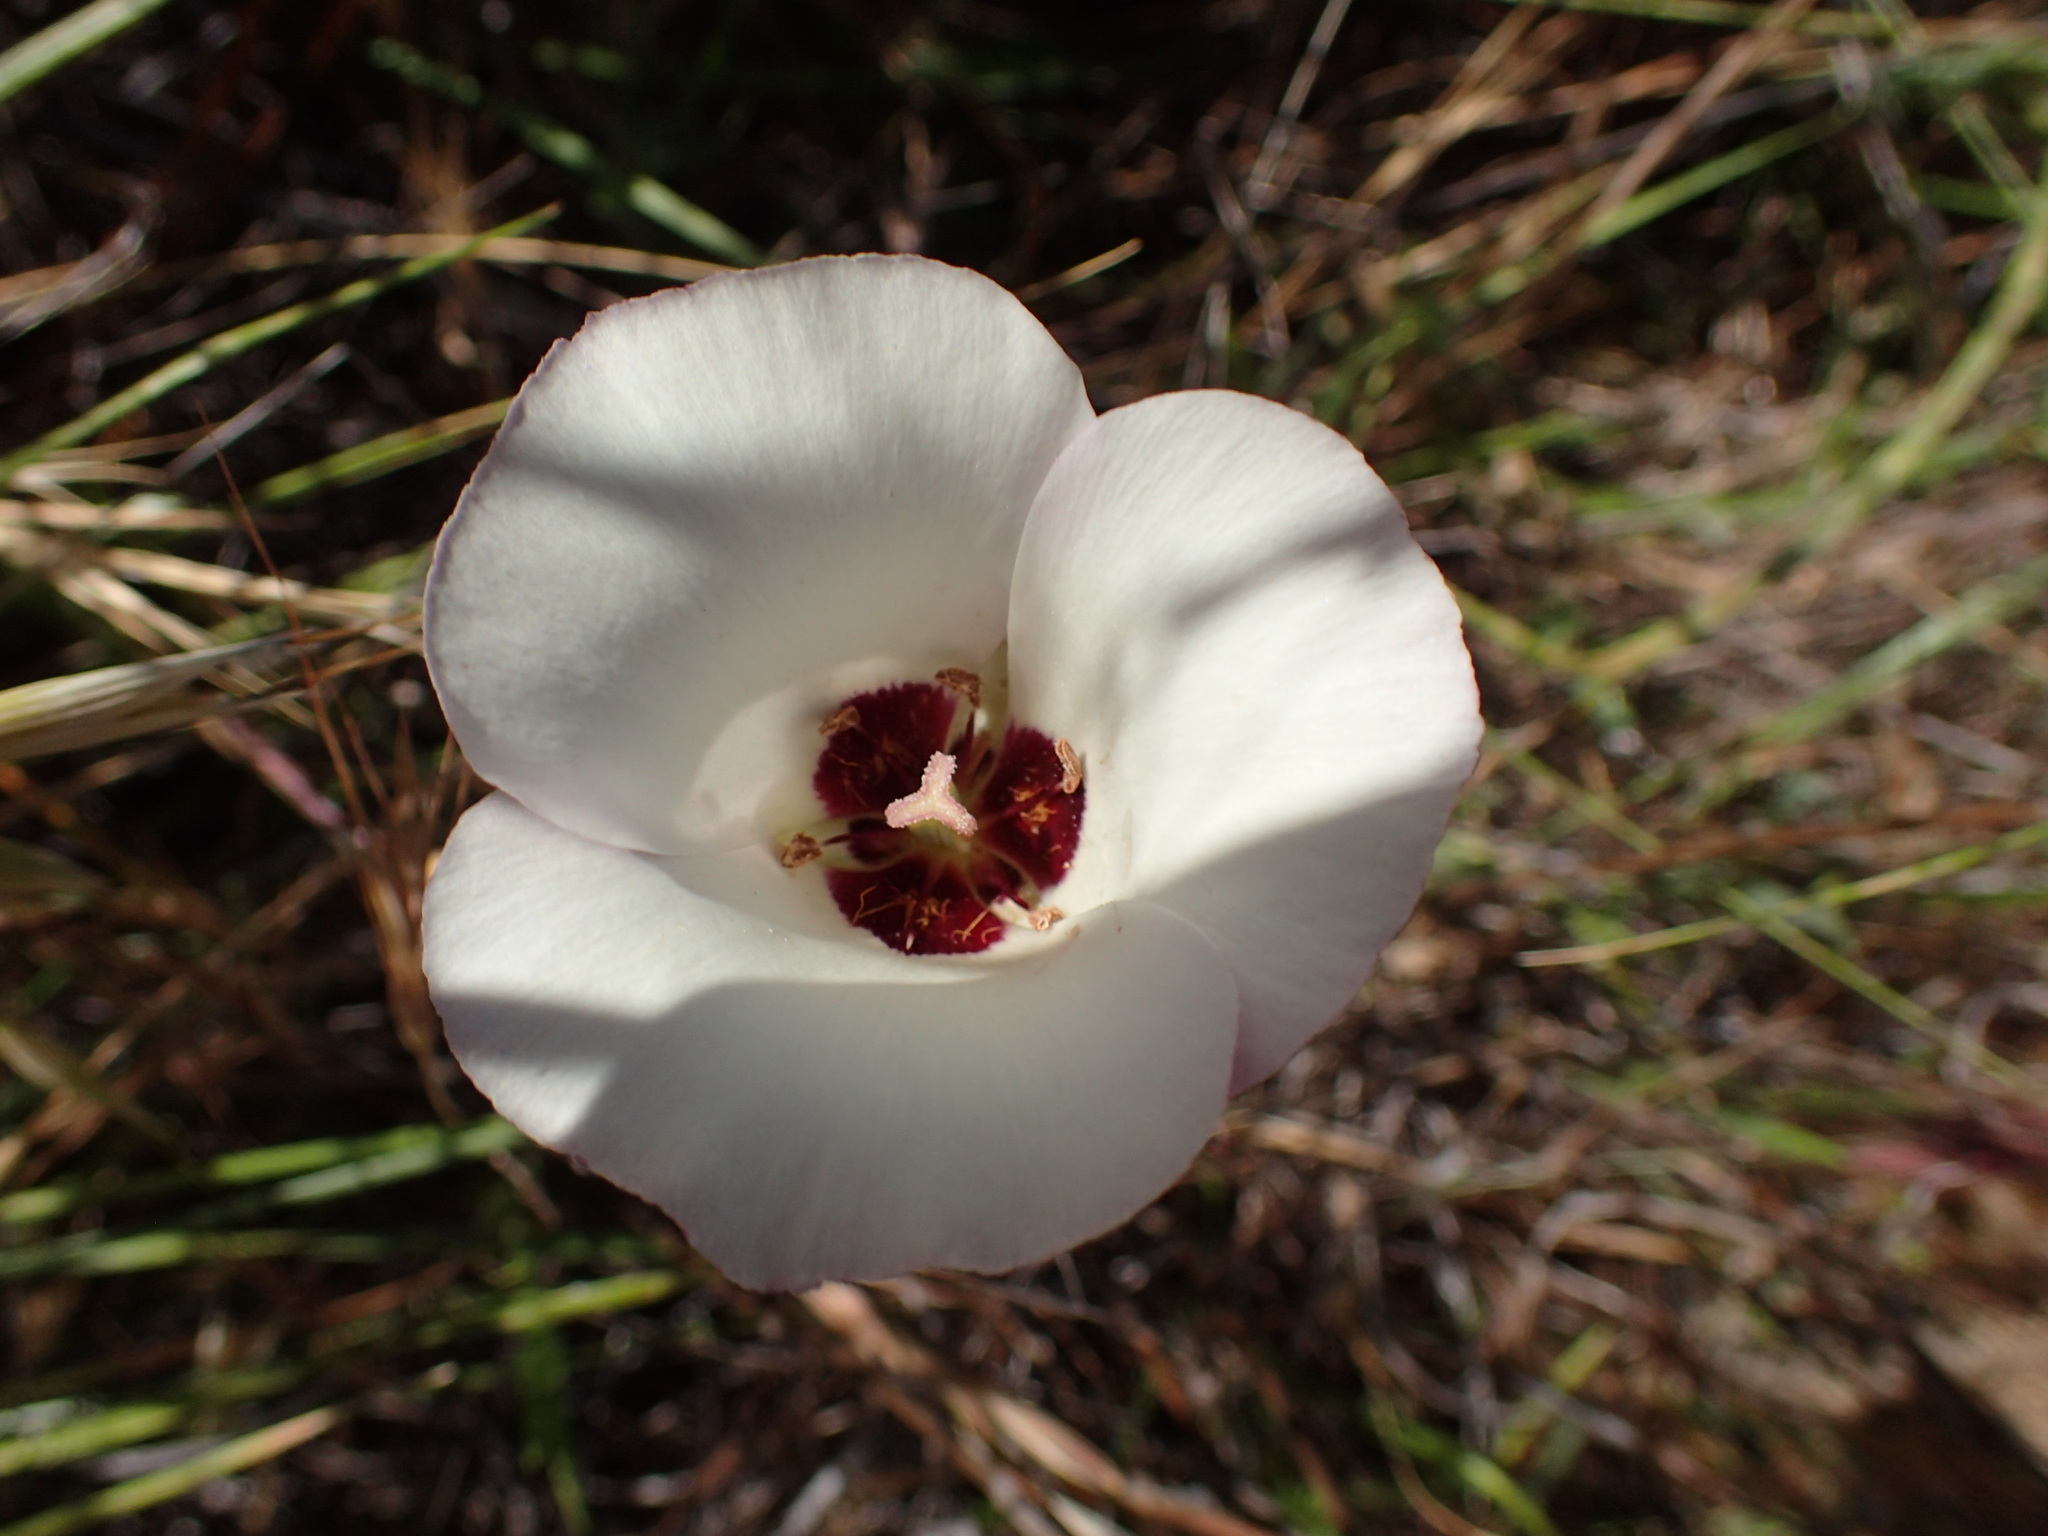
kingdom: Plantae
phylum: Tracheophyta
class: Liliopsida
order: Liliales
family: Liliaceae
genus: Calochortus
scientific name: Calochortus catalinae
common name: Catalina mariposa-lily
